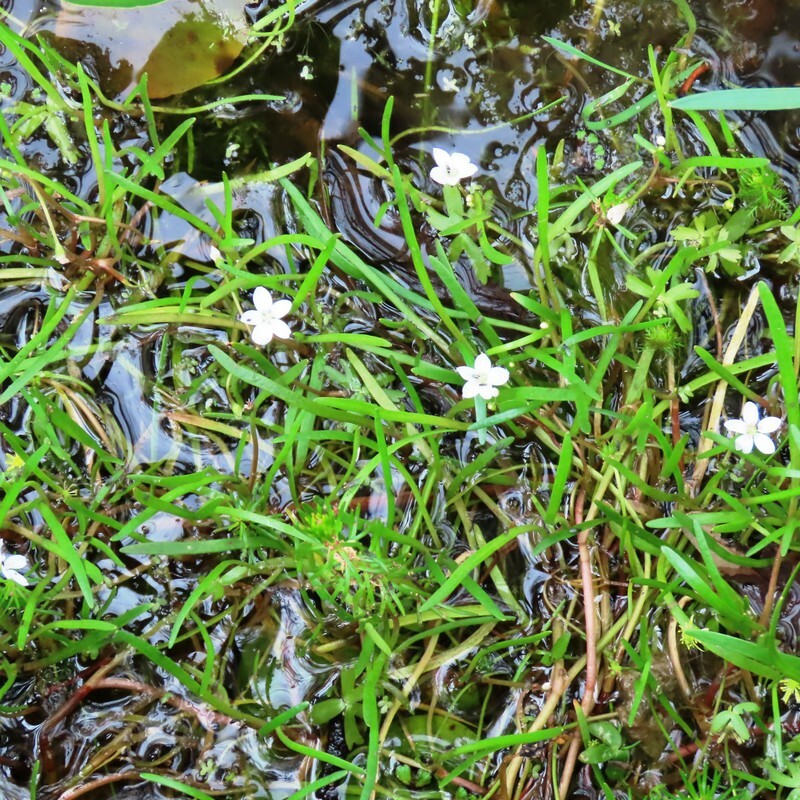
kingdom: Plantae
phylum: Tracheophyta
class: Magnoliopsida
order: Caryophyllales
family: Montiaceae
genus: Montia
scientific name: Montia australasica
